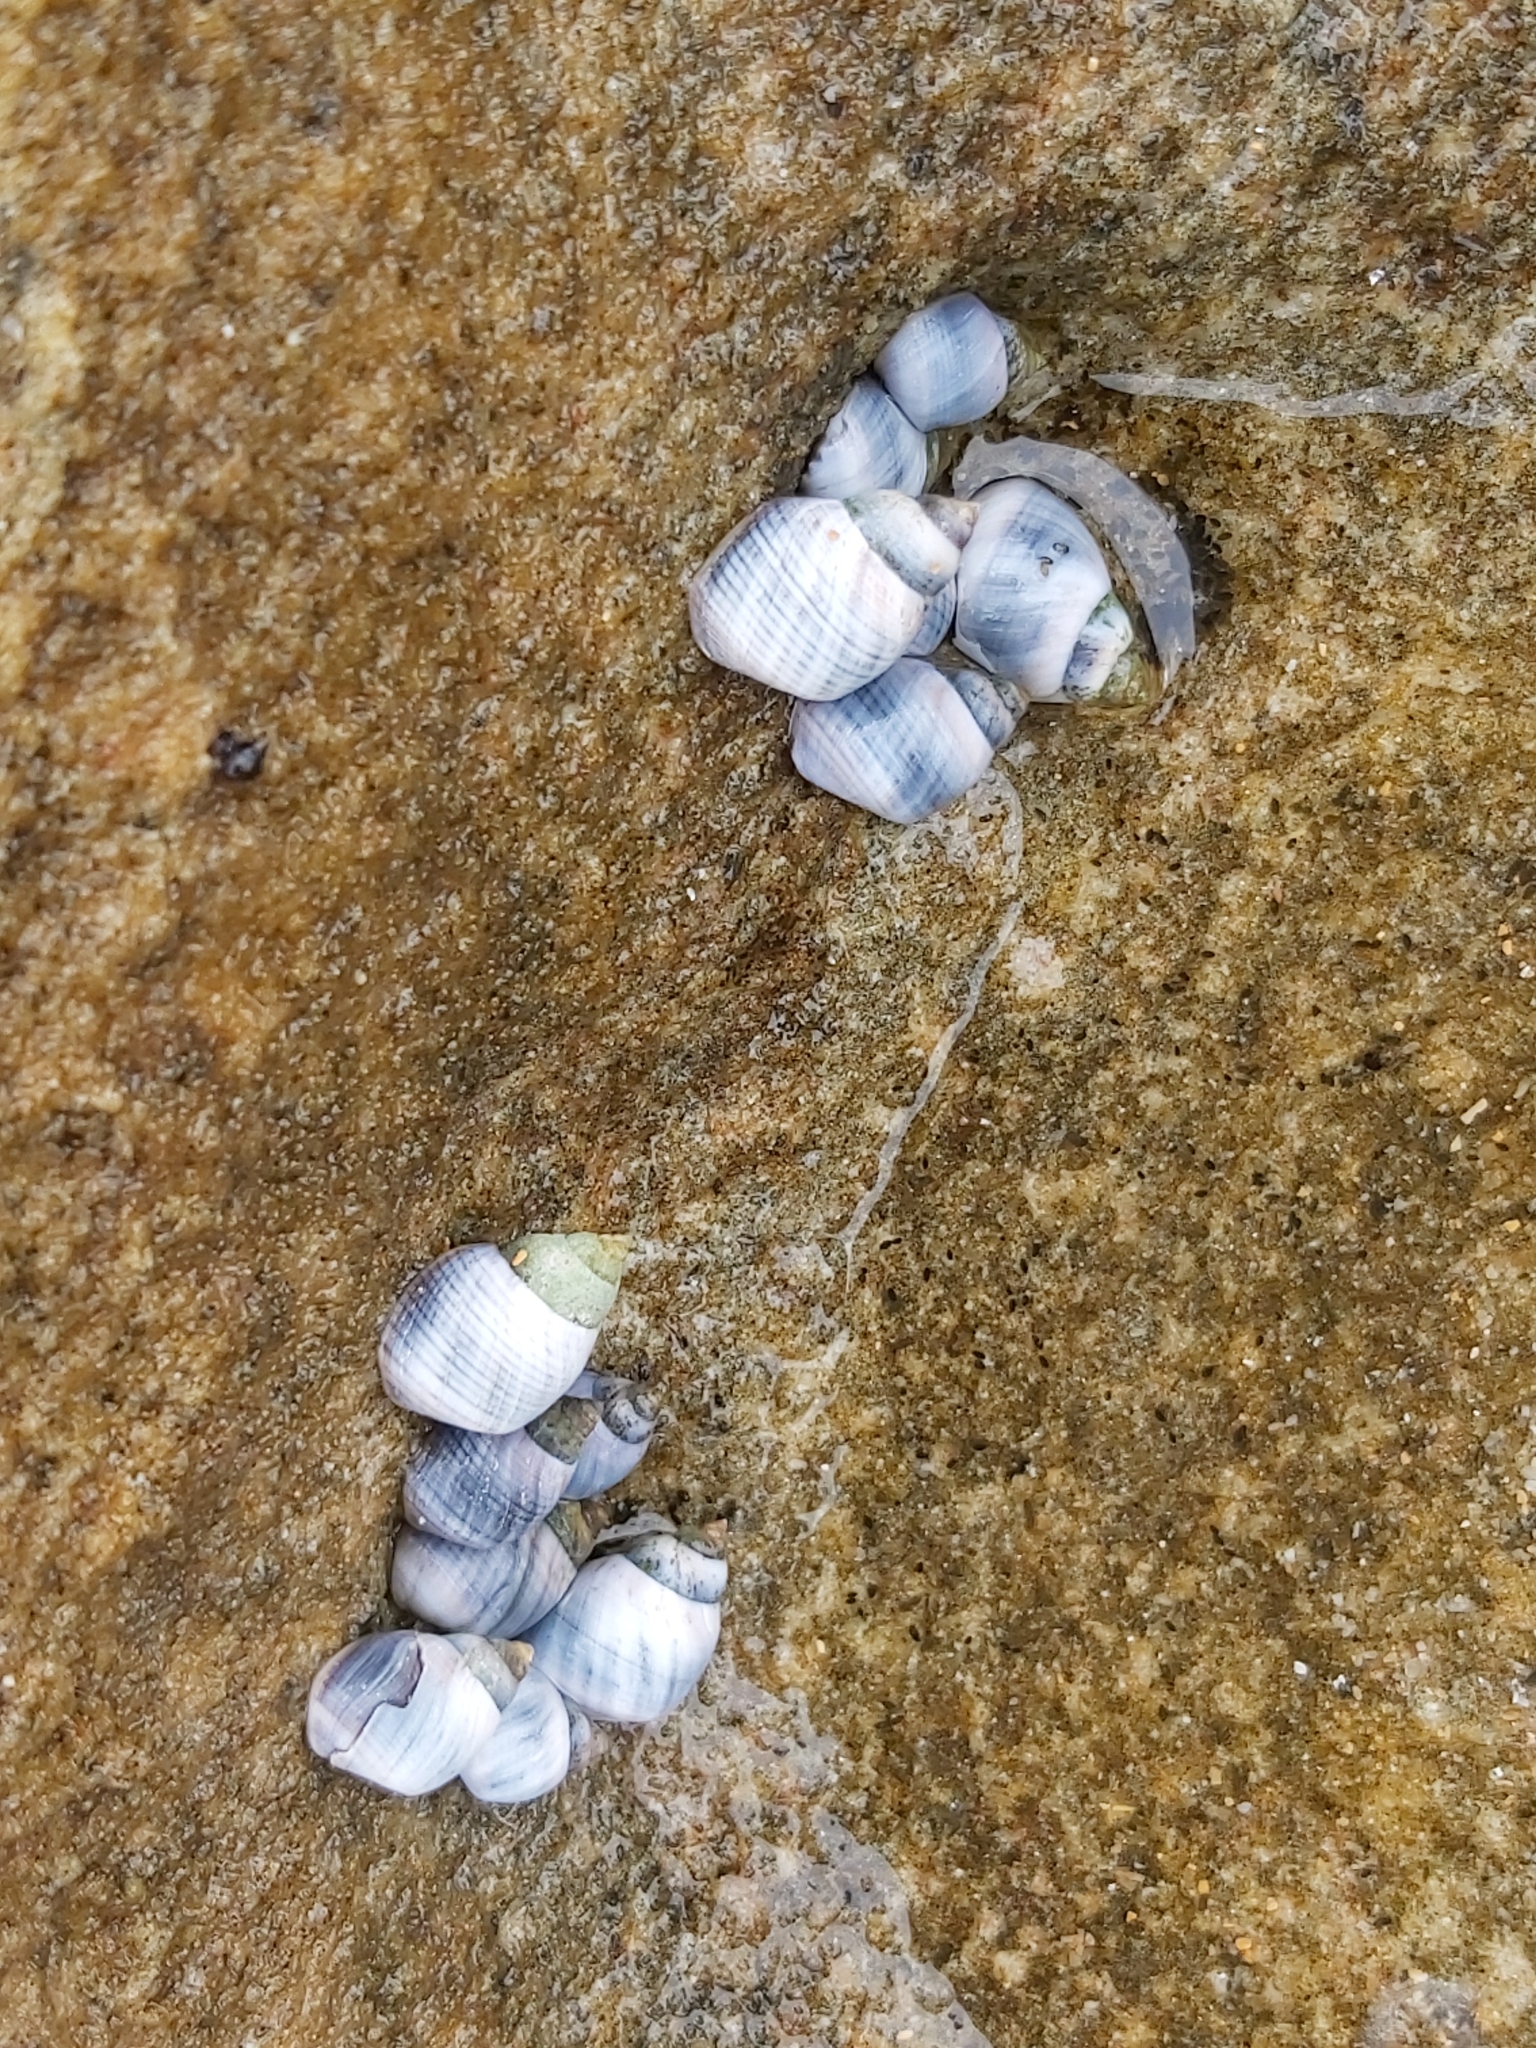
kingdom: Animalia
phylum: Mollusca
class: Gastropoda
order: Littorinimorpha
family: Littorinidae
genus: Austrolittorina
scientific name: Austrolittorina unifasciata
